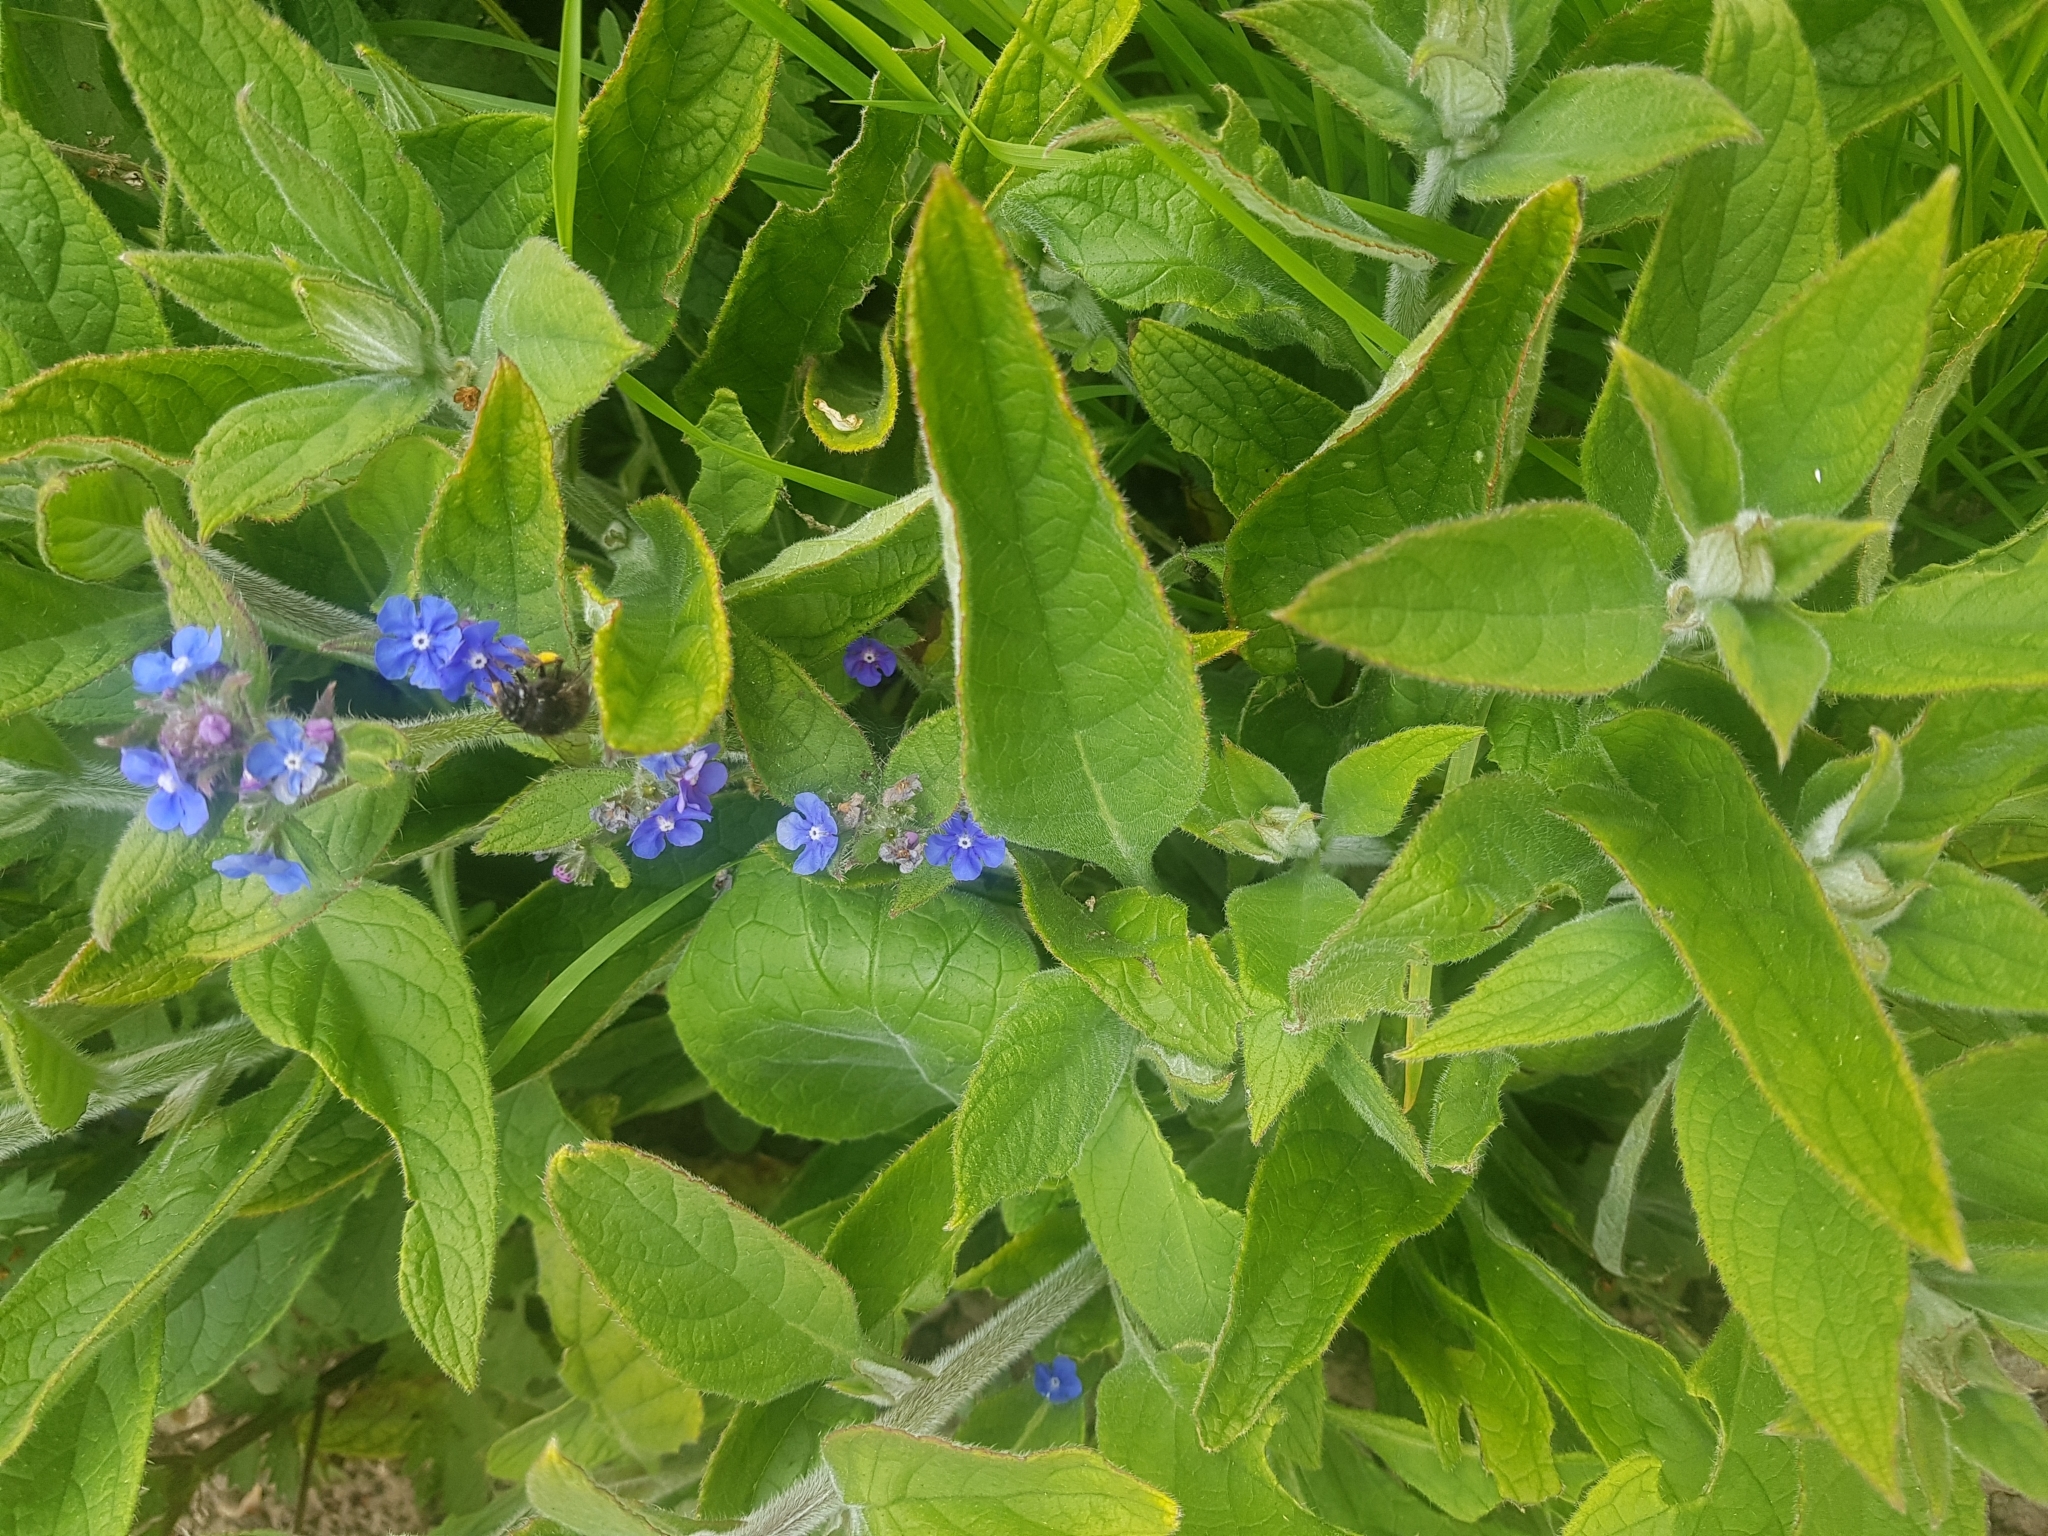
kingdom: Plantae
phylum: Tracheophyta
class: Magnoliopsida
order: Boraginales
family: Boraginaceae
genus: Pentaglottis
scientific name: Pentaglottis sempervirens
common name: Green alkanet
